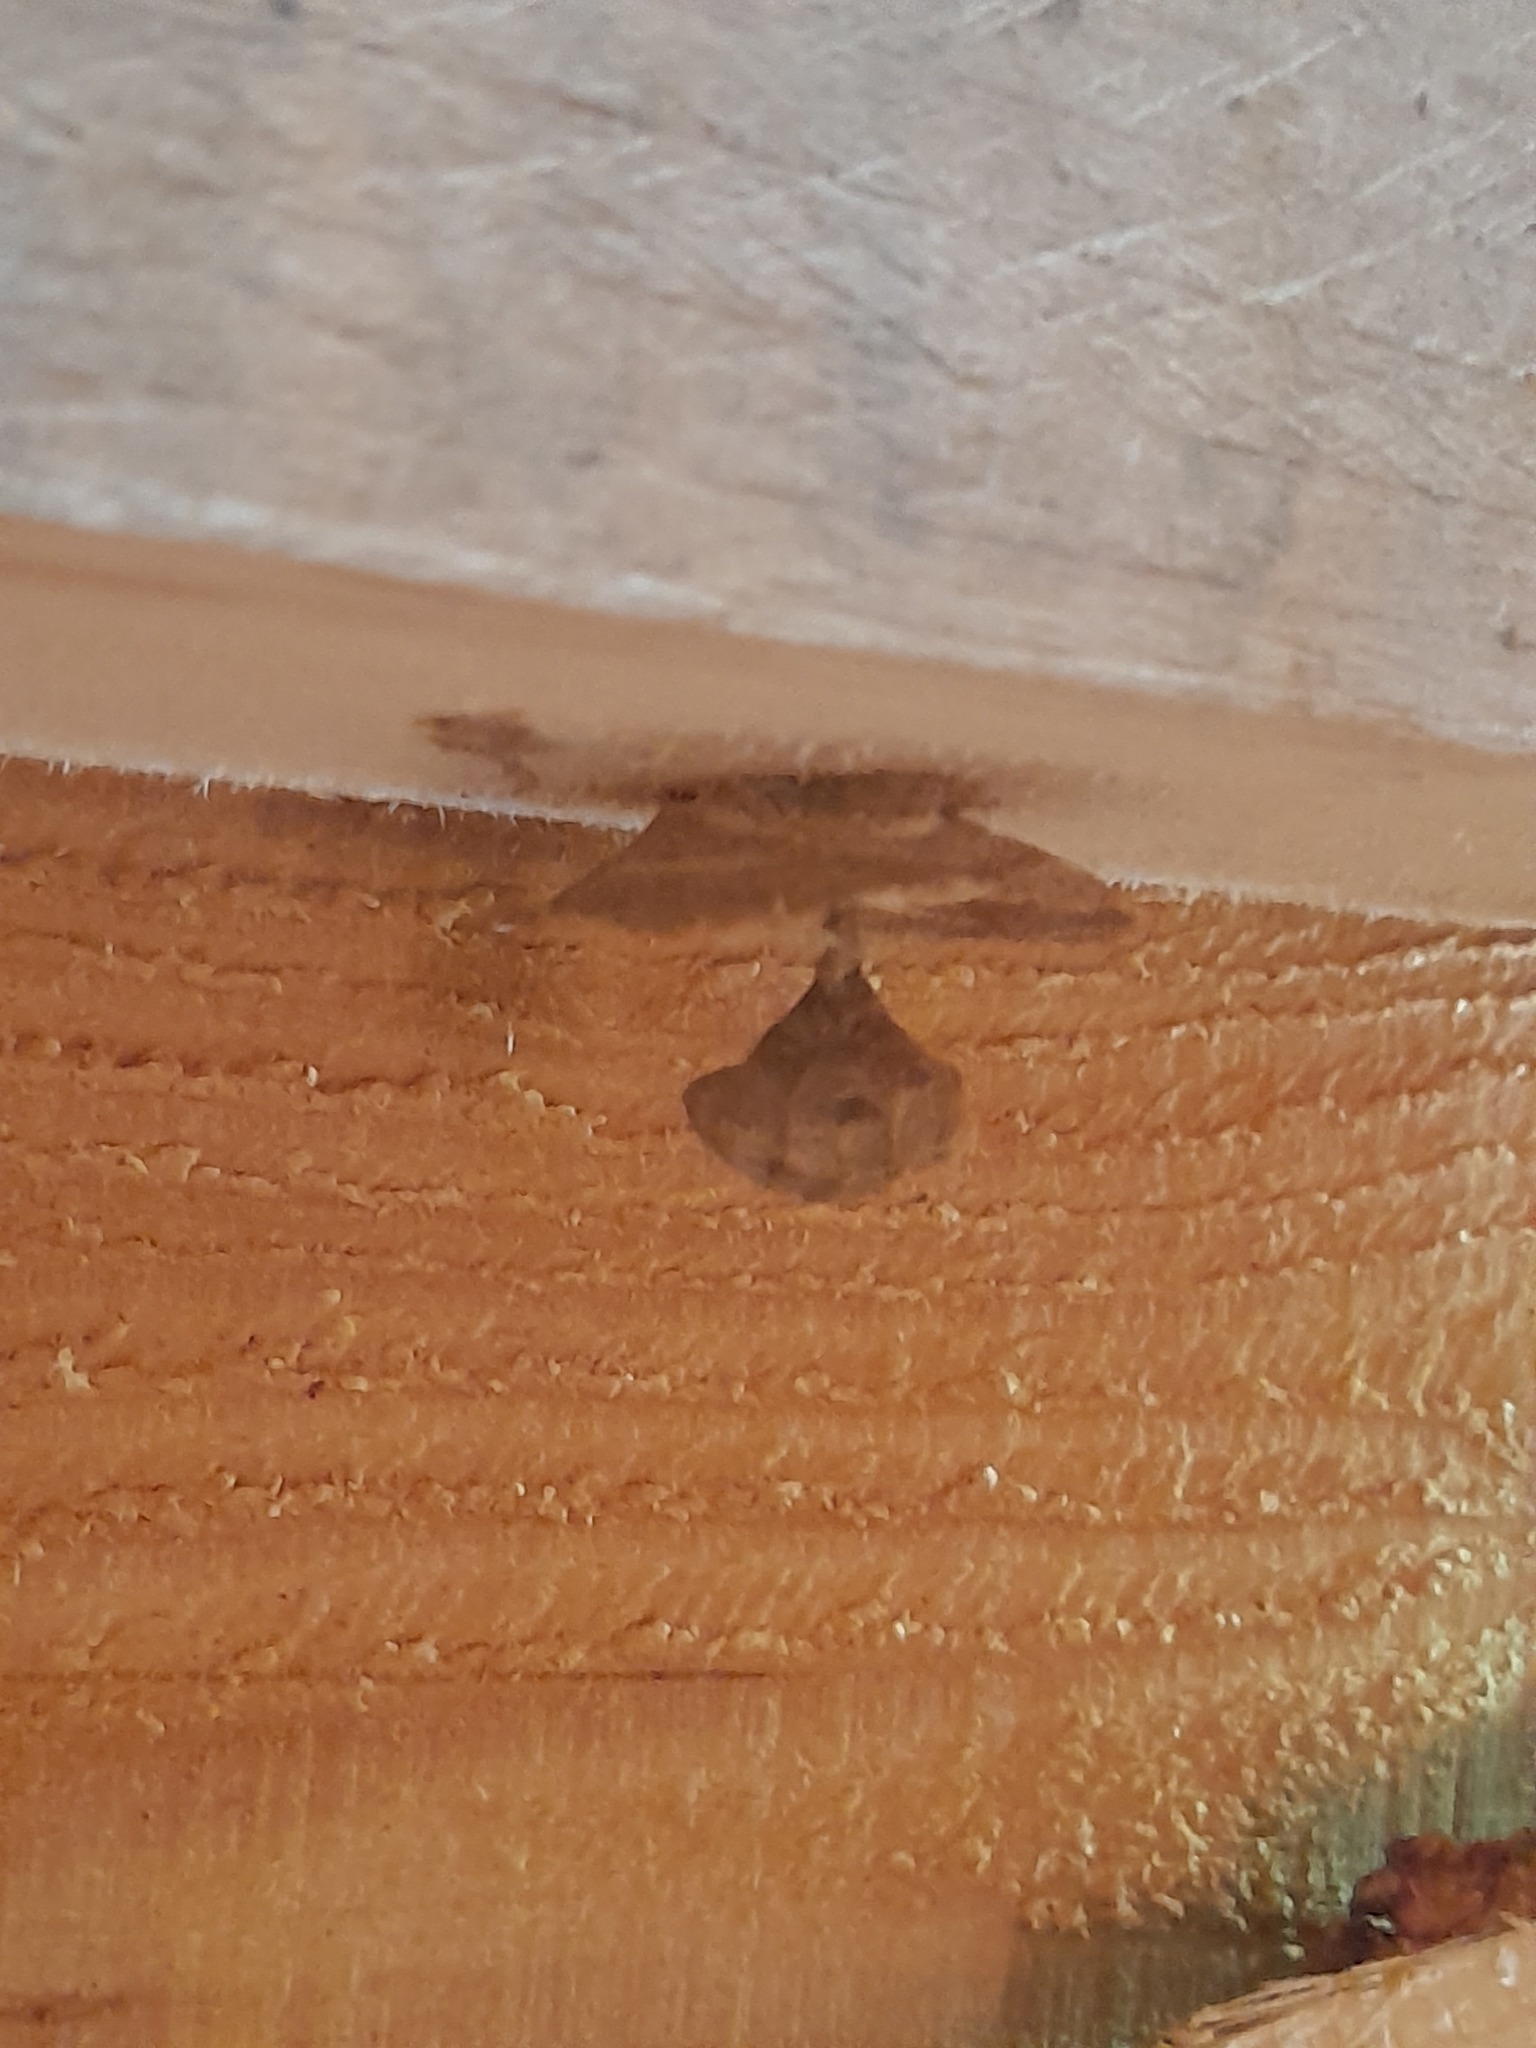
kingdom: Animalia
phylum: Arthropoda
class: Insecta
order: Hymenoptera
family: Vespidae
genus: Vespa
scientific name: Vespa crabro
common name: Hornet
